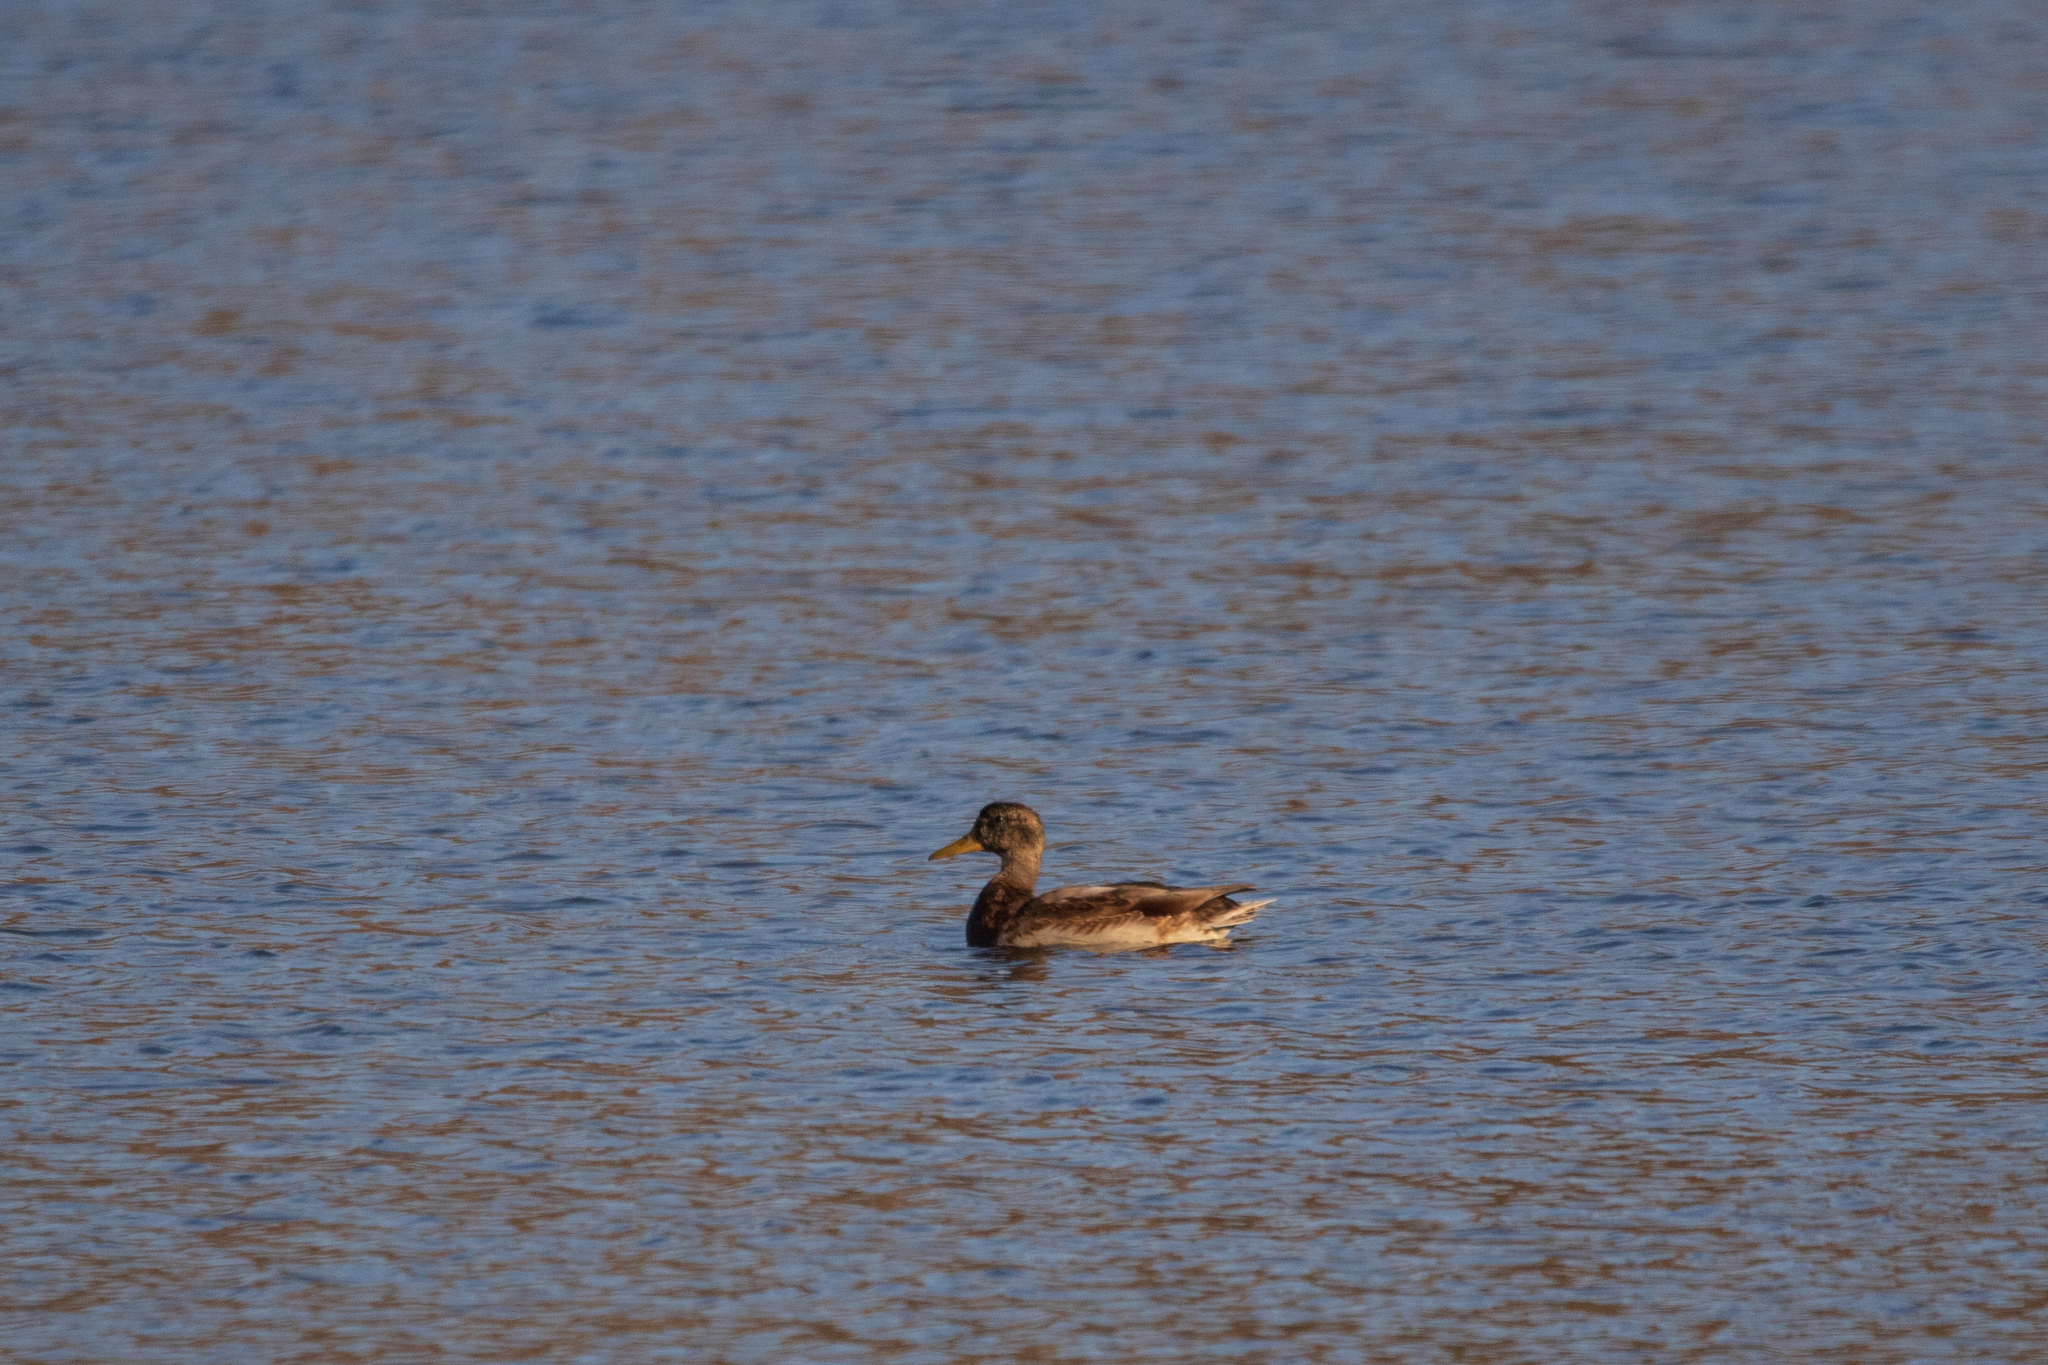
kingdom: Animalia
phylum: Chordata
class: Aves
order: Anseriformes
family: Anatidae
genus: Anas
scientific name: Anas platyrhynchos
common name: Mallard
